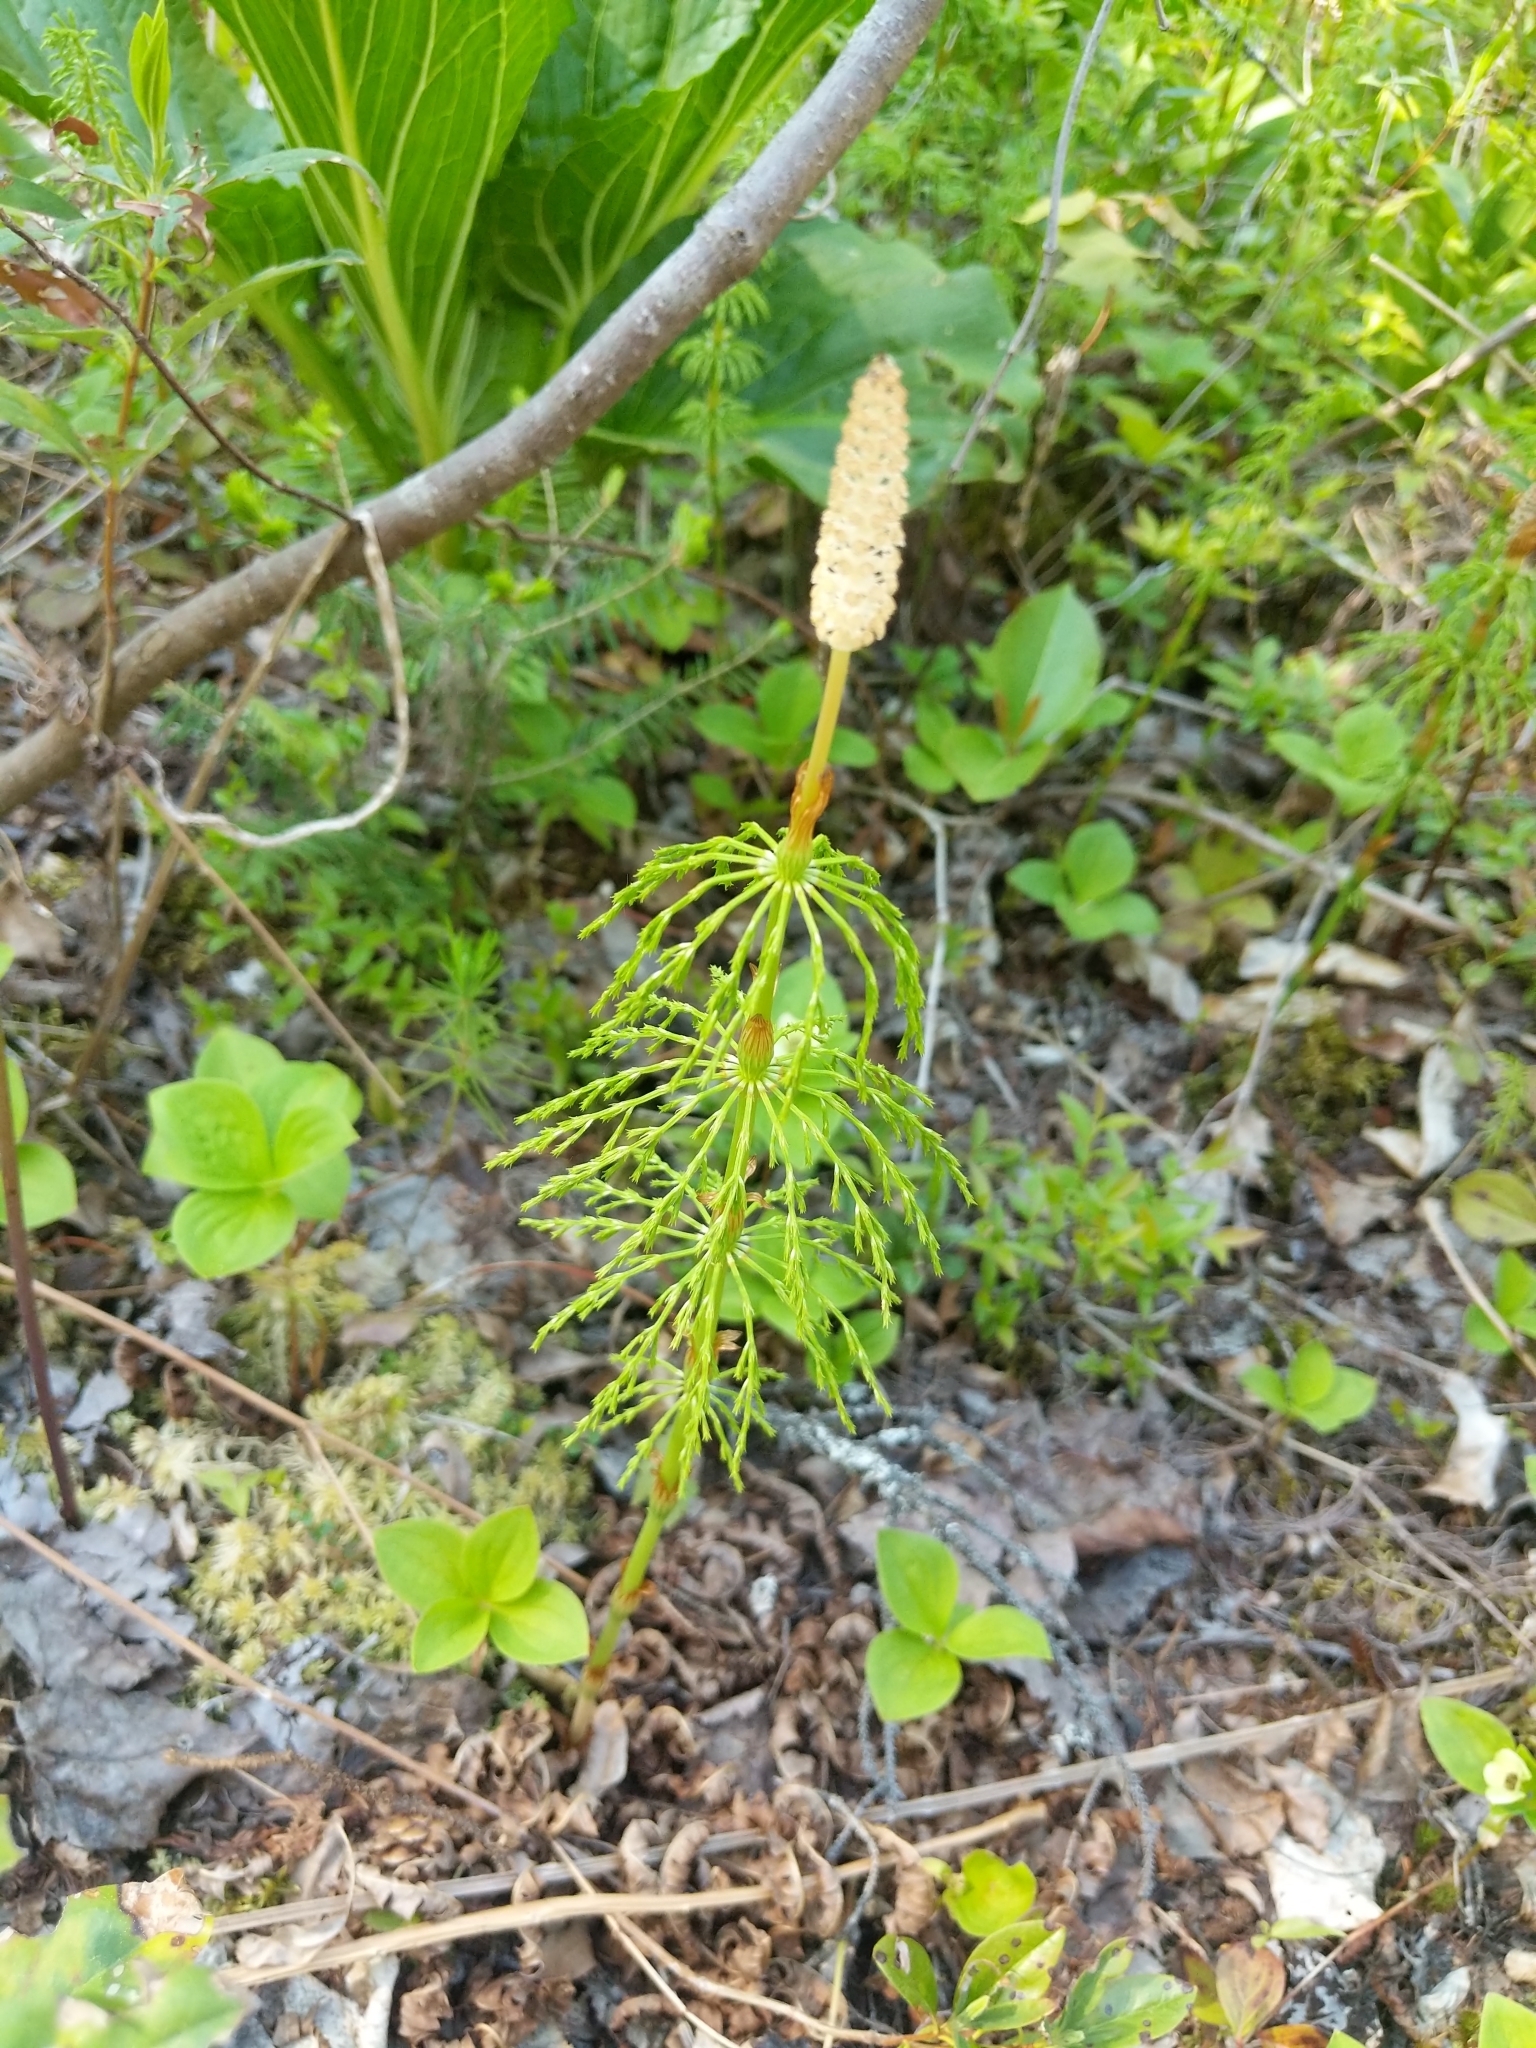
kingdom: Plantae
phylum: Tracheophyta
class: Polypodiopsida
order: Equisetales
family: Equisetaceae
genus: Equisetum
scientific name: Equisetum sylvaticum
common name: Wood horsetail
